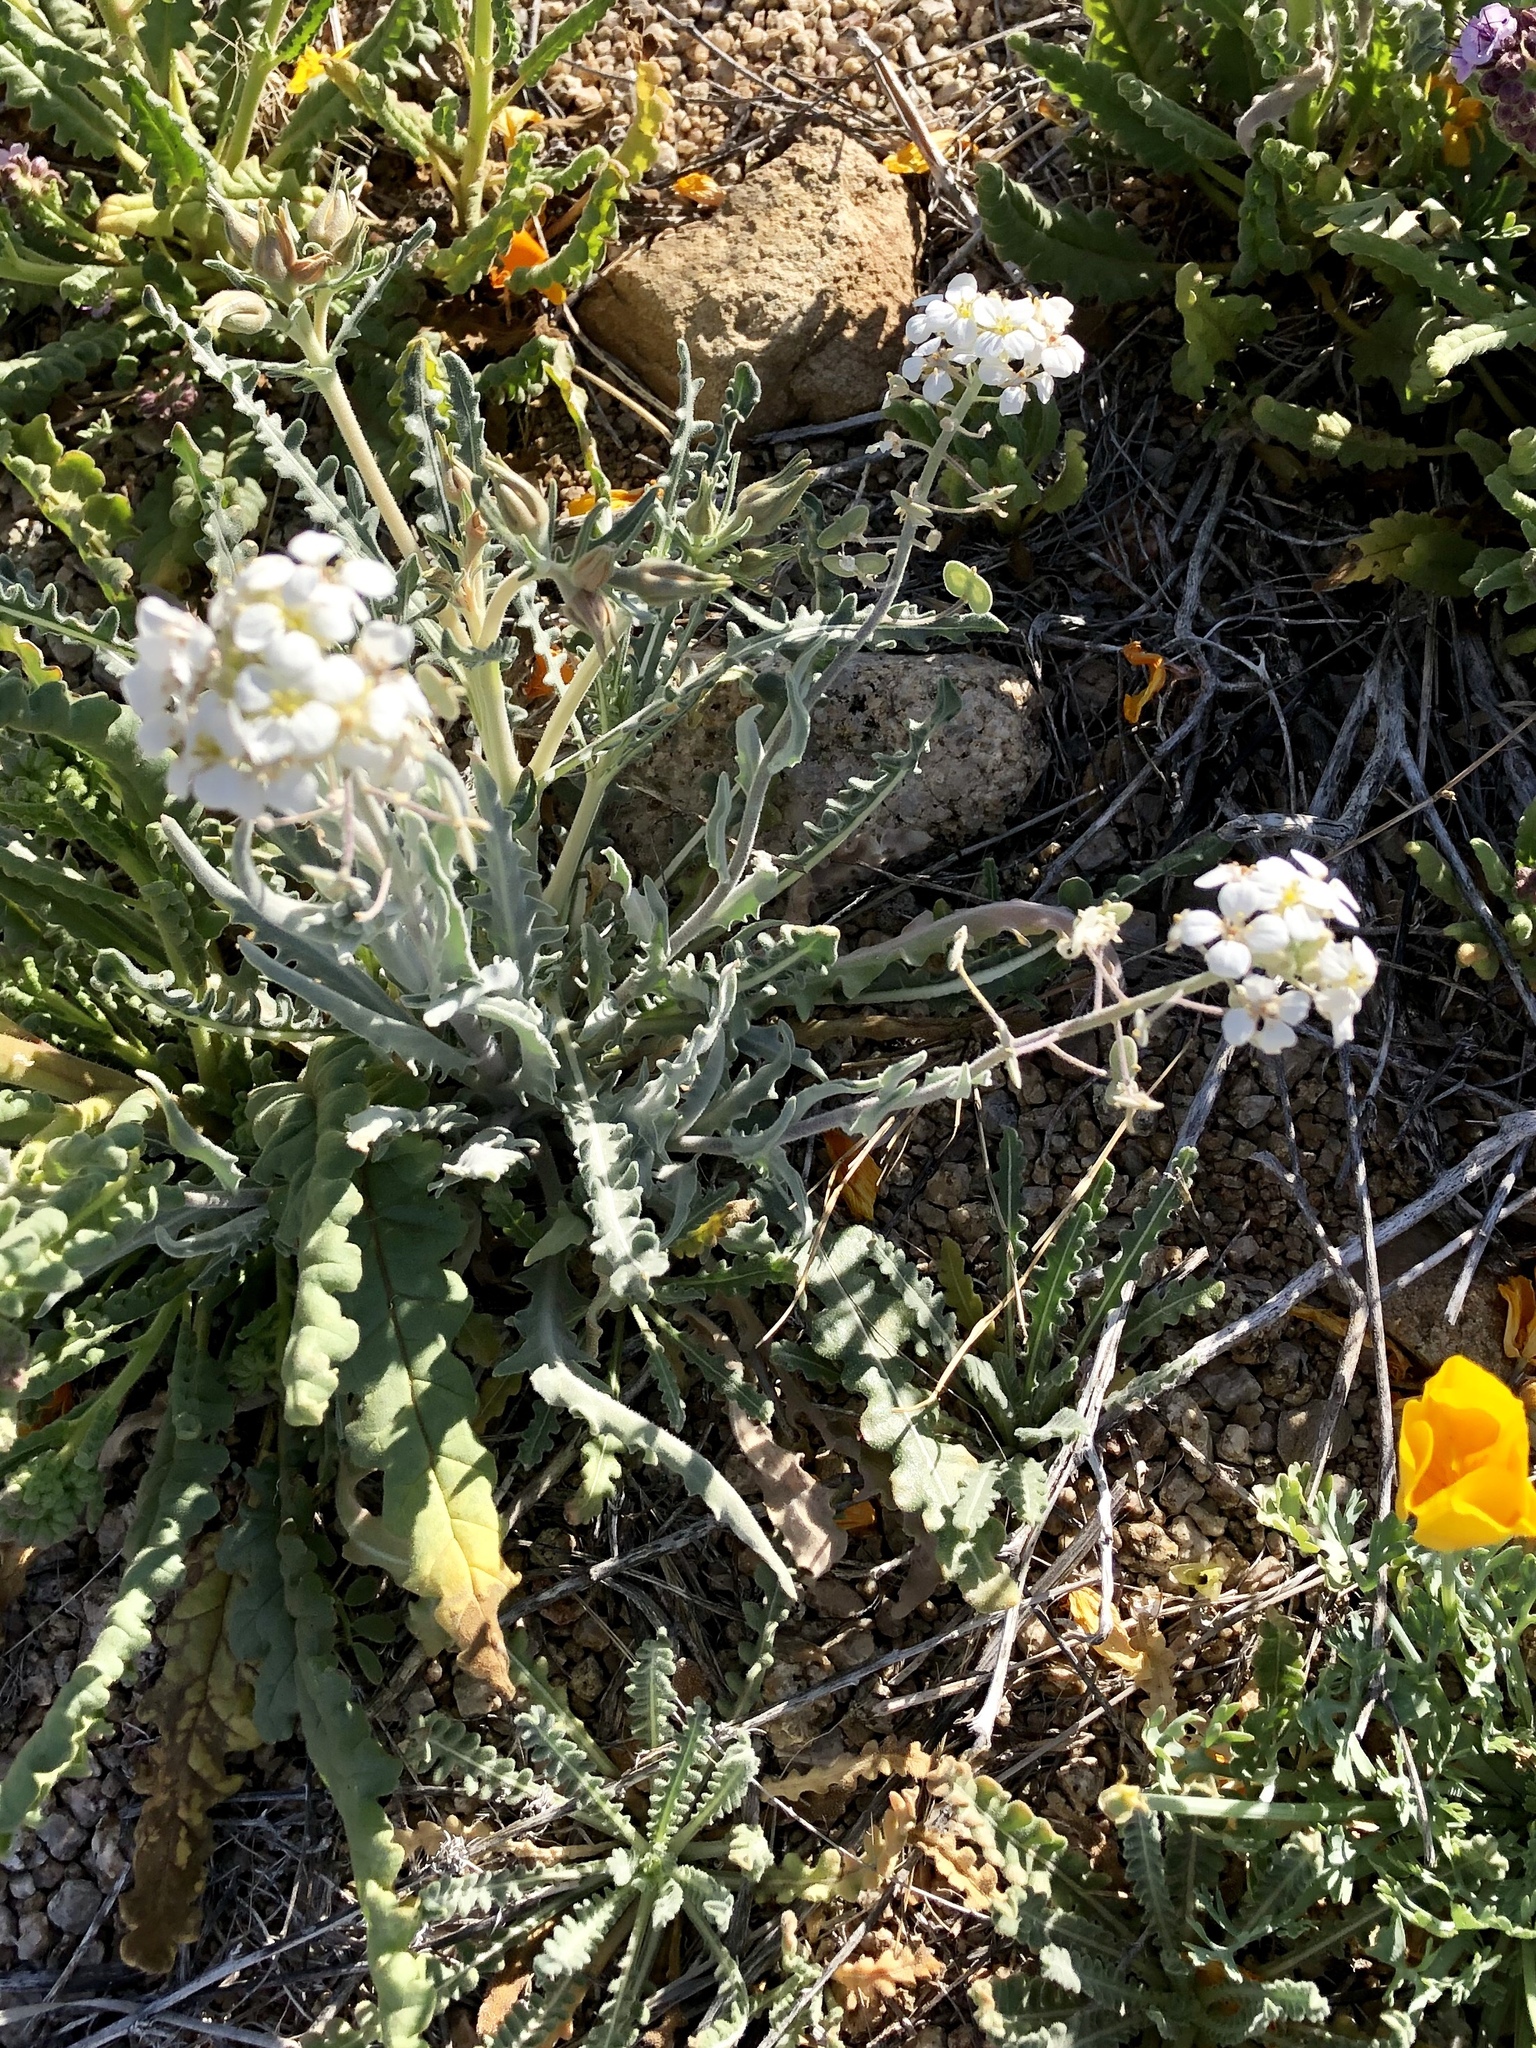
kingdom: Plantae
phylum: Tracheophyta
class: Magnoliopsida
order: Brassicales
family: Brassicaceae
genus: Dimorphocarpa
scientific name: Dimorphocarpa wislizenii
